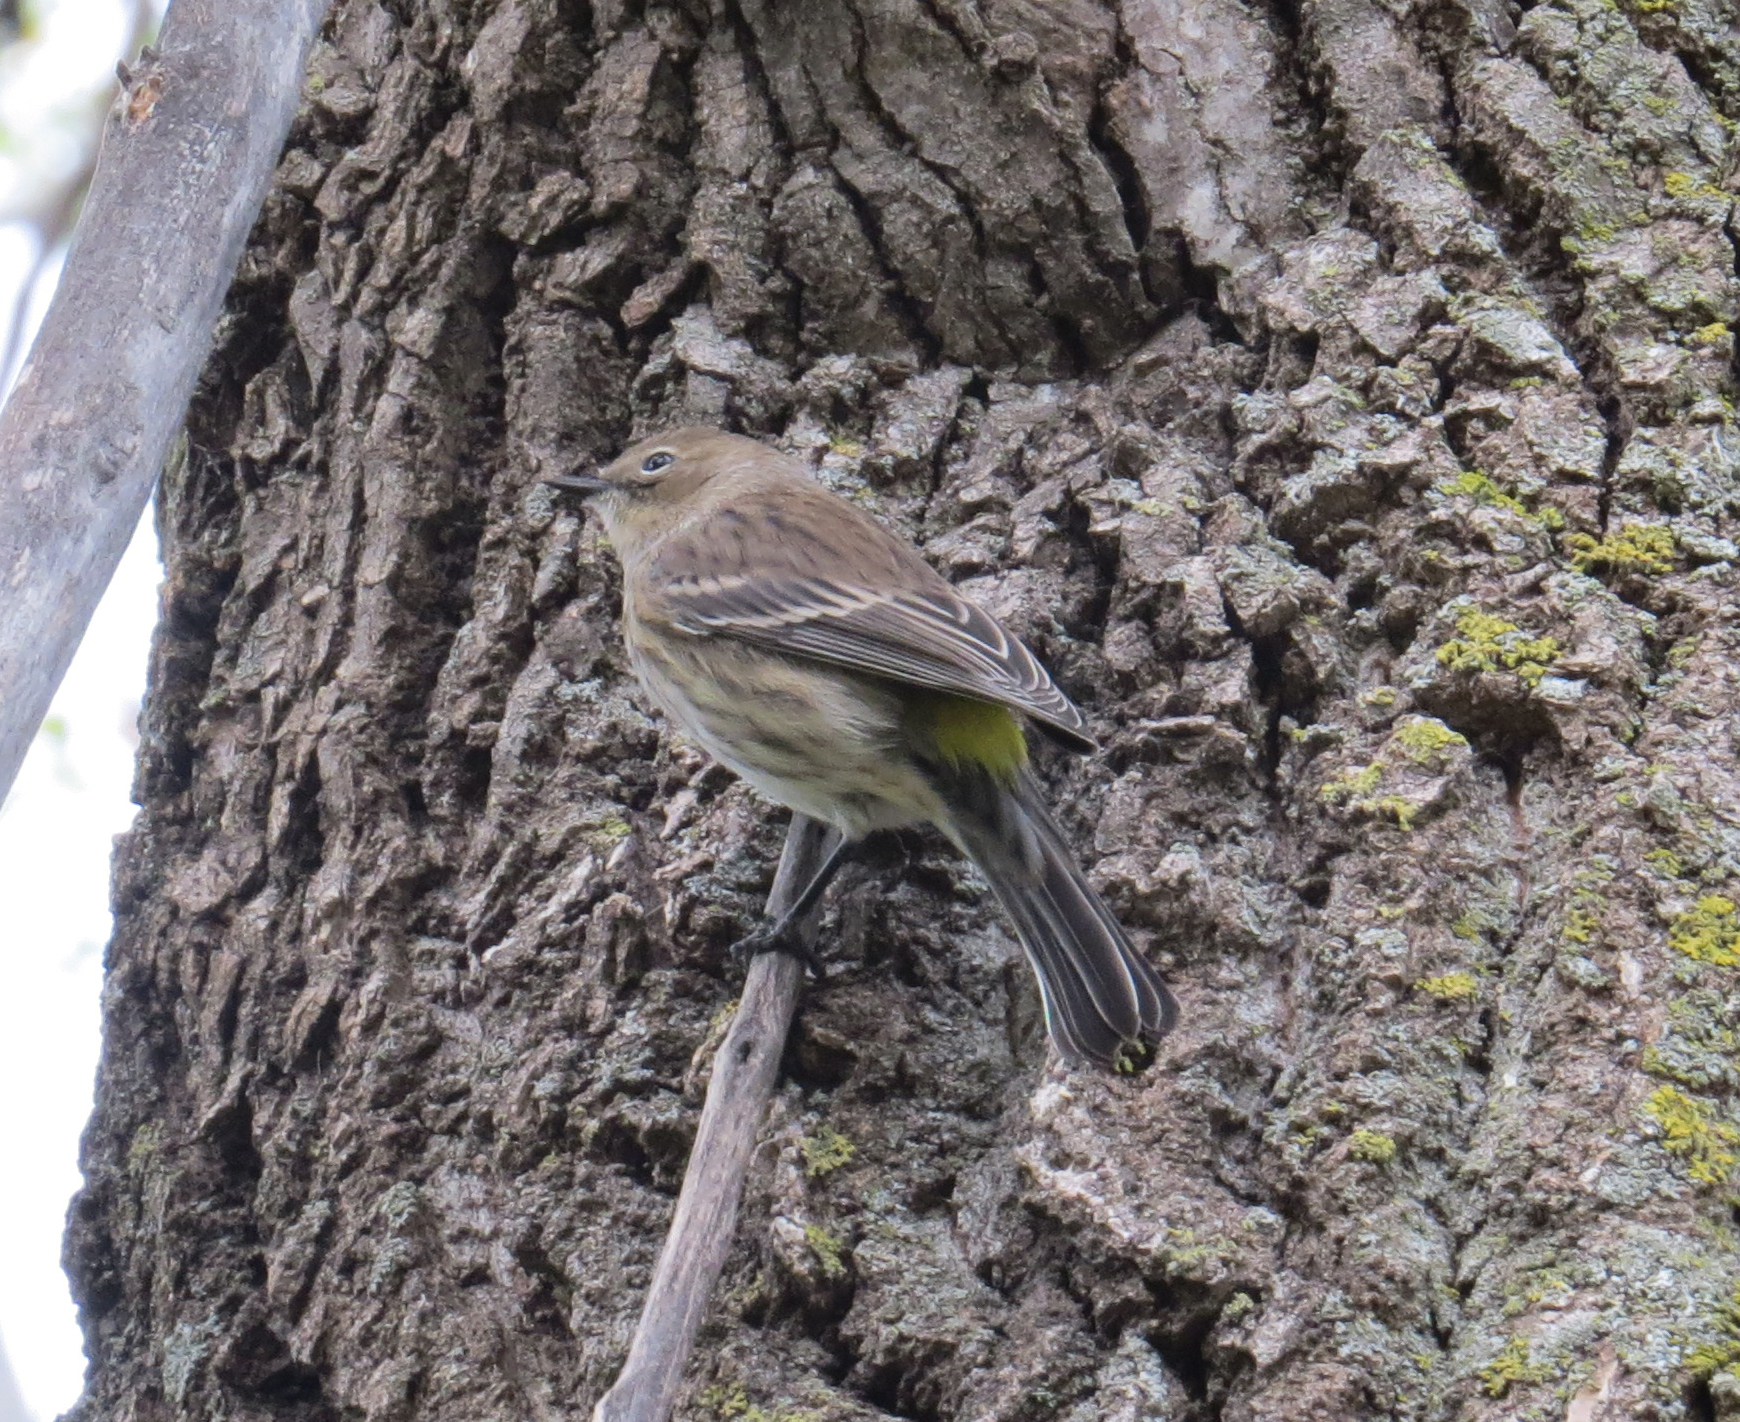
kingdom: Animalia
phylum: Chordata
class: Aves
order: Passeriformes
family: Parulidae
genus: Setophaga
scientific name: Setophaga coronata
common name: Myrtle warbler
